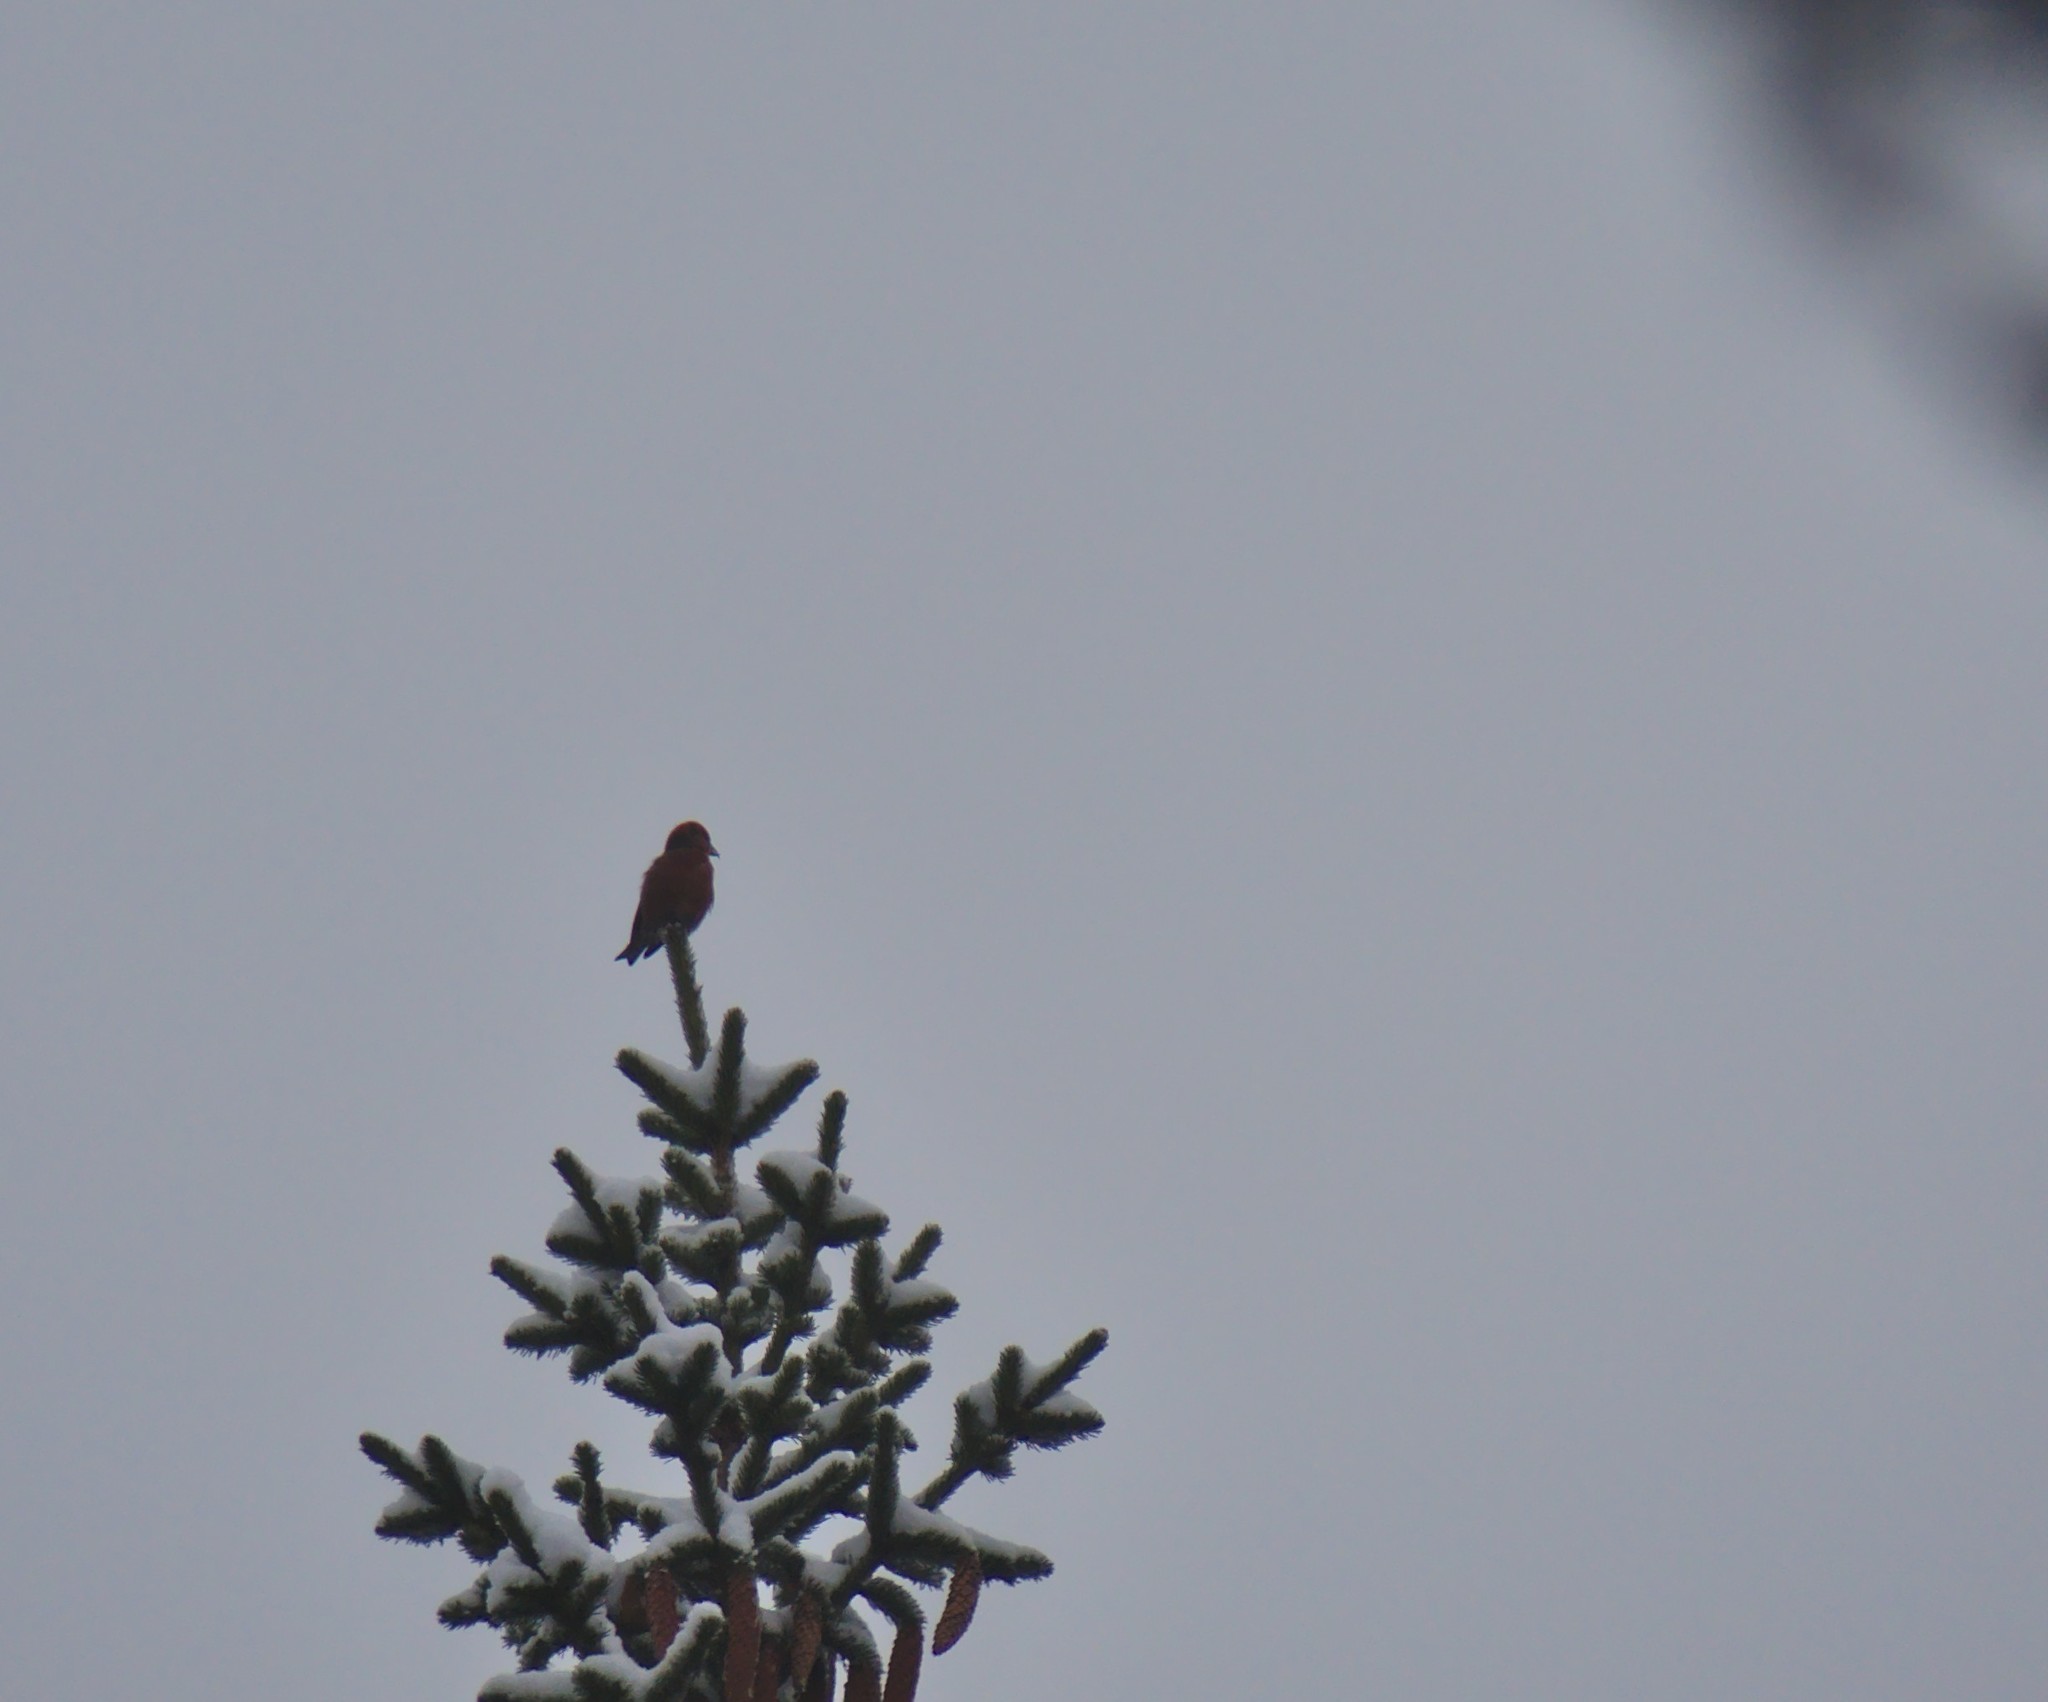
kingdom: Animalia
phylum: Chordata
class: Aves
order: Passeriformes
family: Fringillidae
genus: Loxia
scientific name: Loxia curvirostra
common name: Red crossbill
